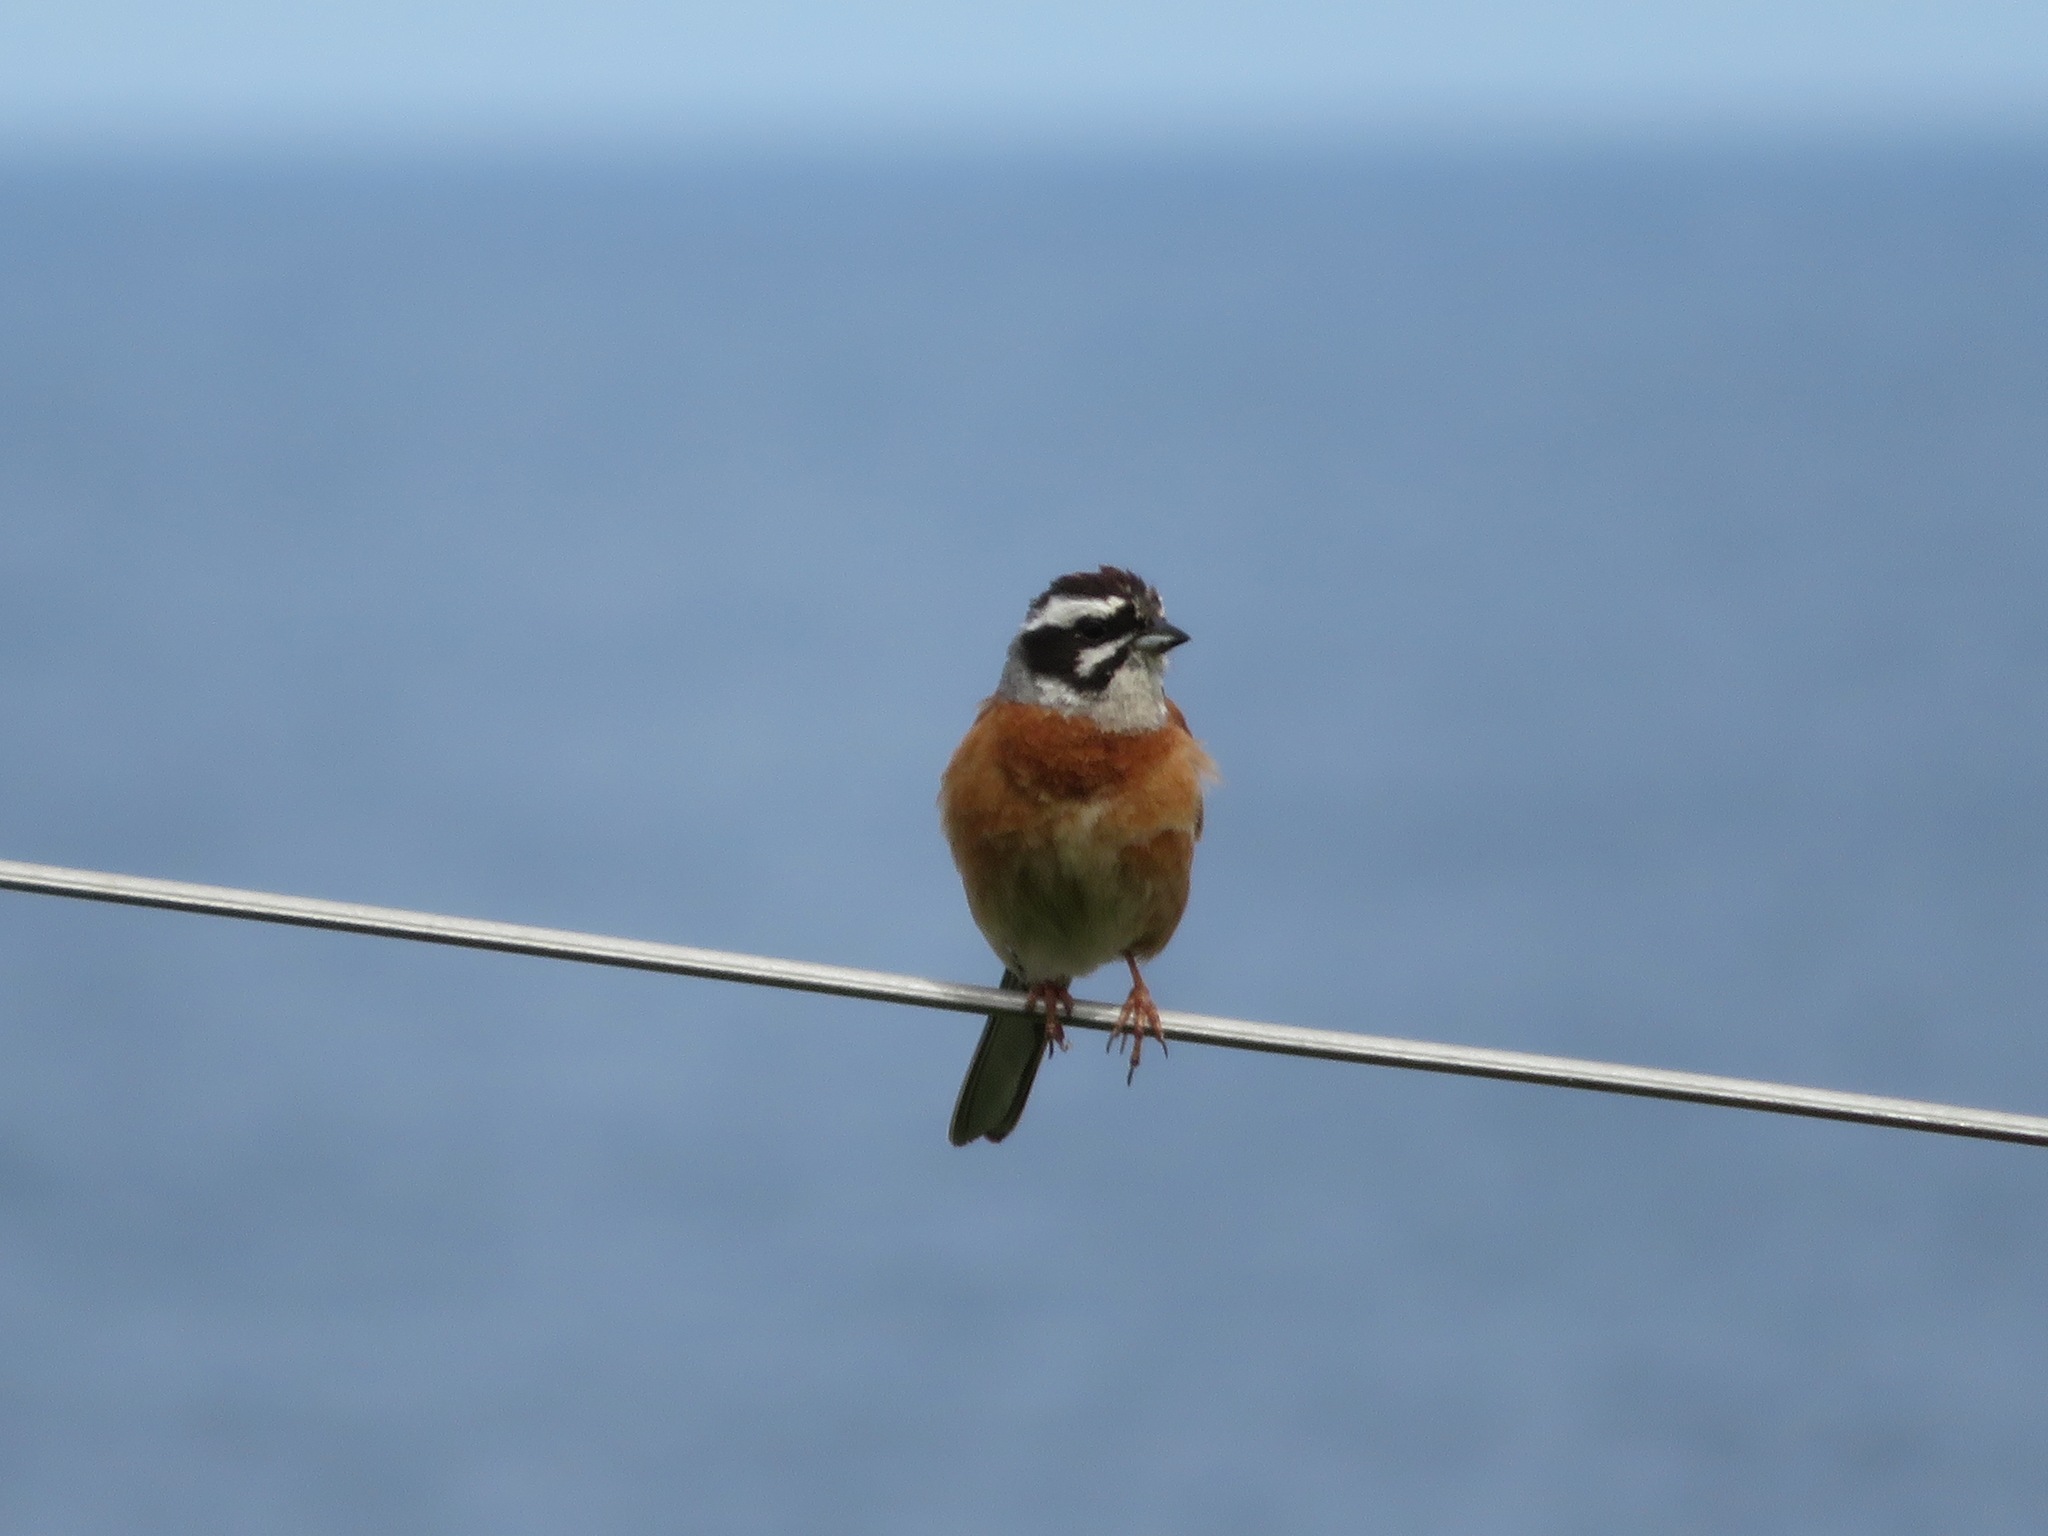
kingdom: Animalia
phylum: Chordata
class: Aves
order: Passeriformes
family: Emberizidae
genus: Emberiza
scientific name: Emberiza cioides
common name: Meadow bunting
